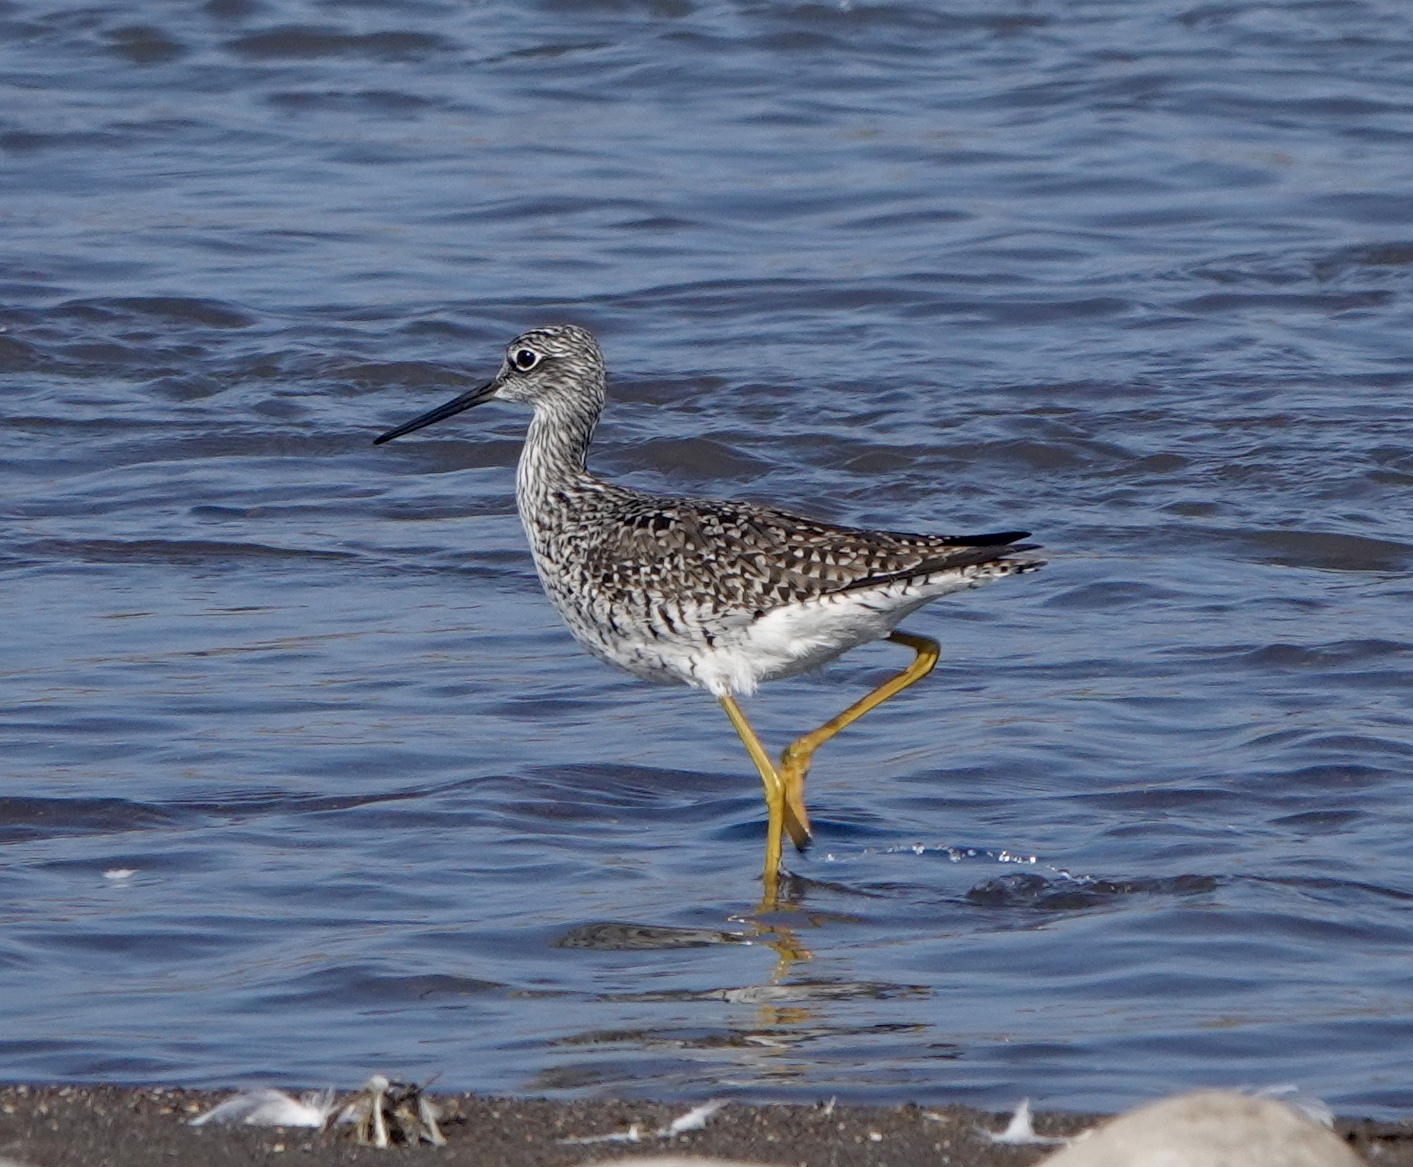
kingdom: Animalia
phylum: Chordata
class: Aves
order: Charadriiformes
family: Scolopacidae
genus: Tringa
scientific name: Tringa melanoleuca
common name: Greater yellowlegs
